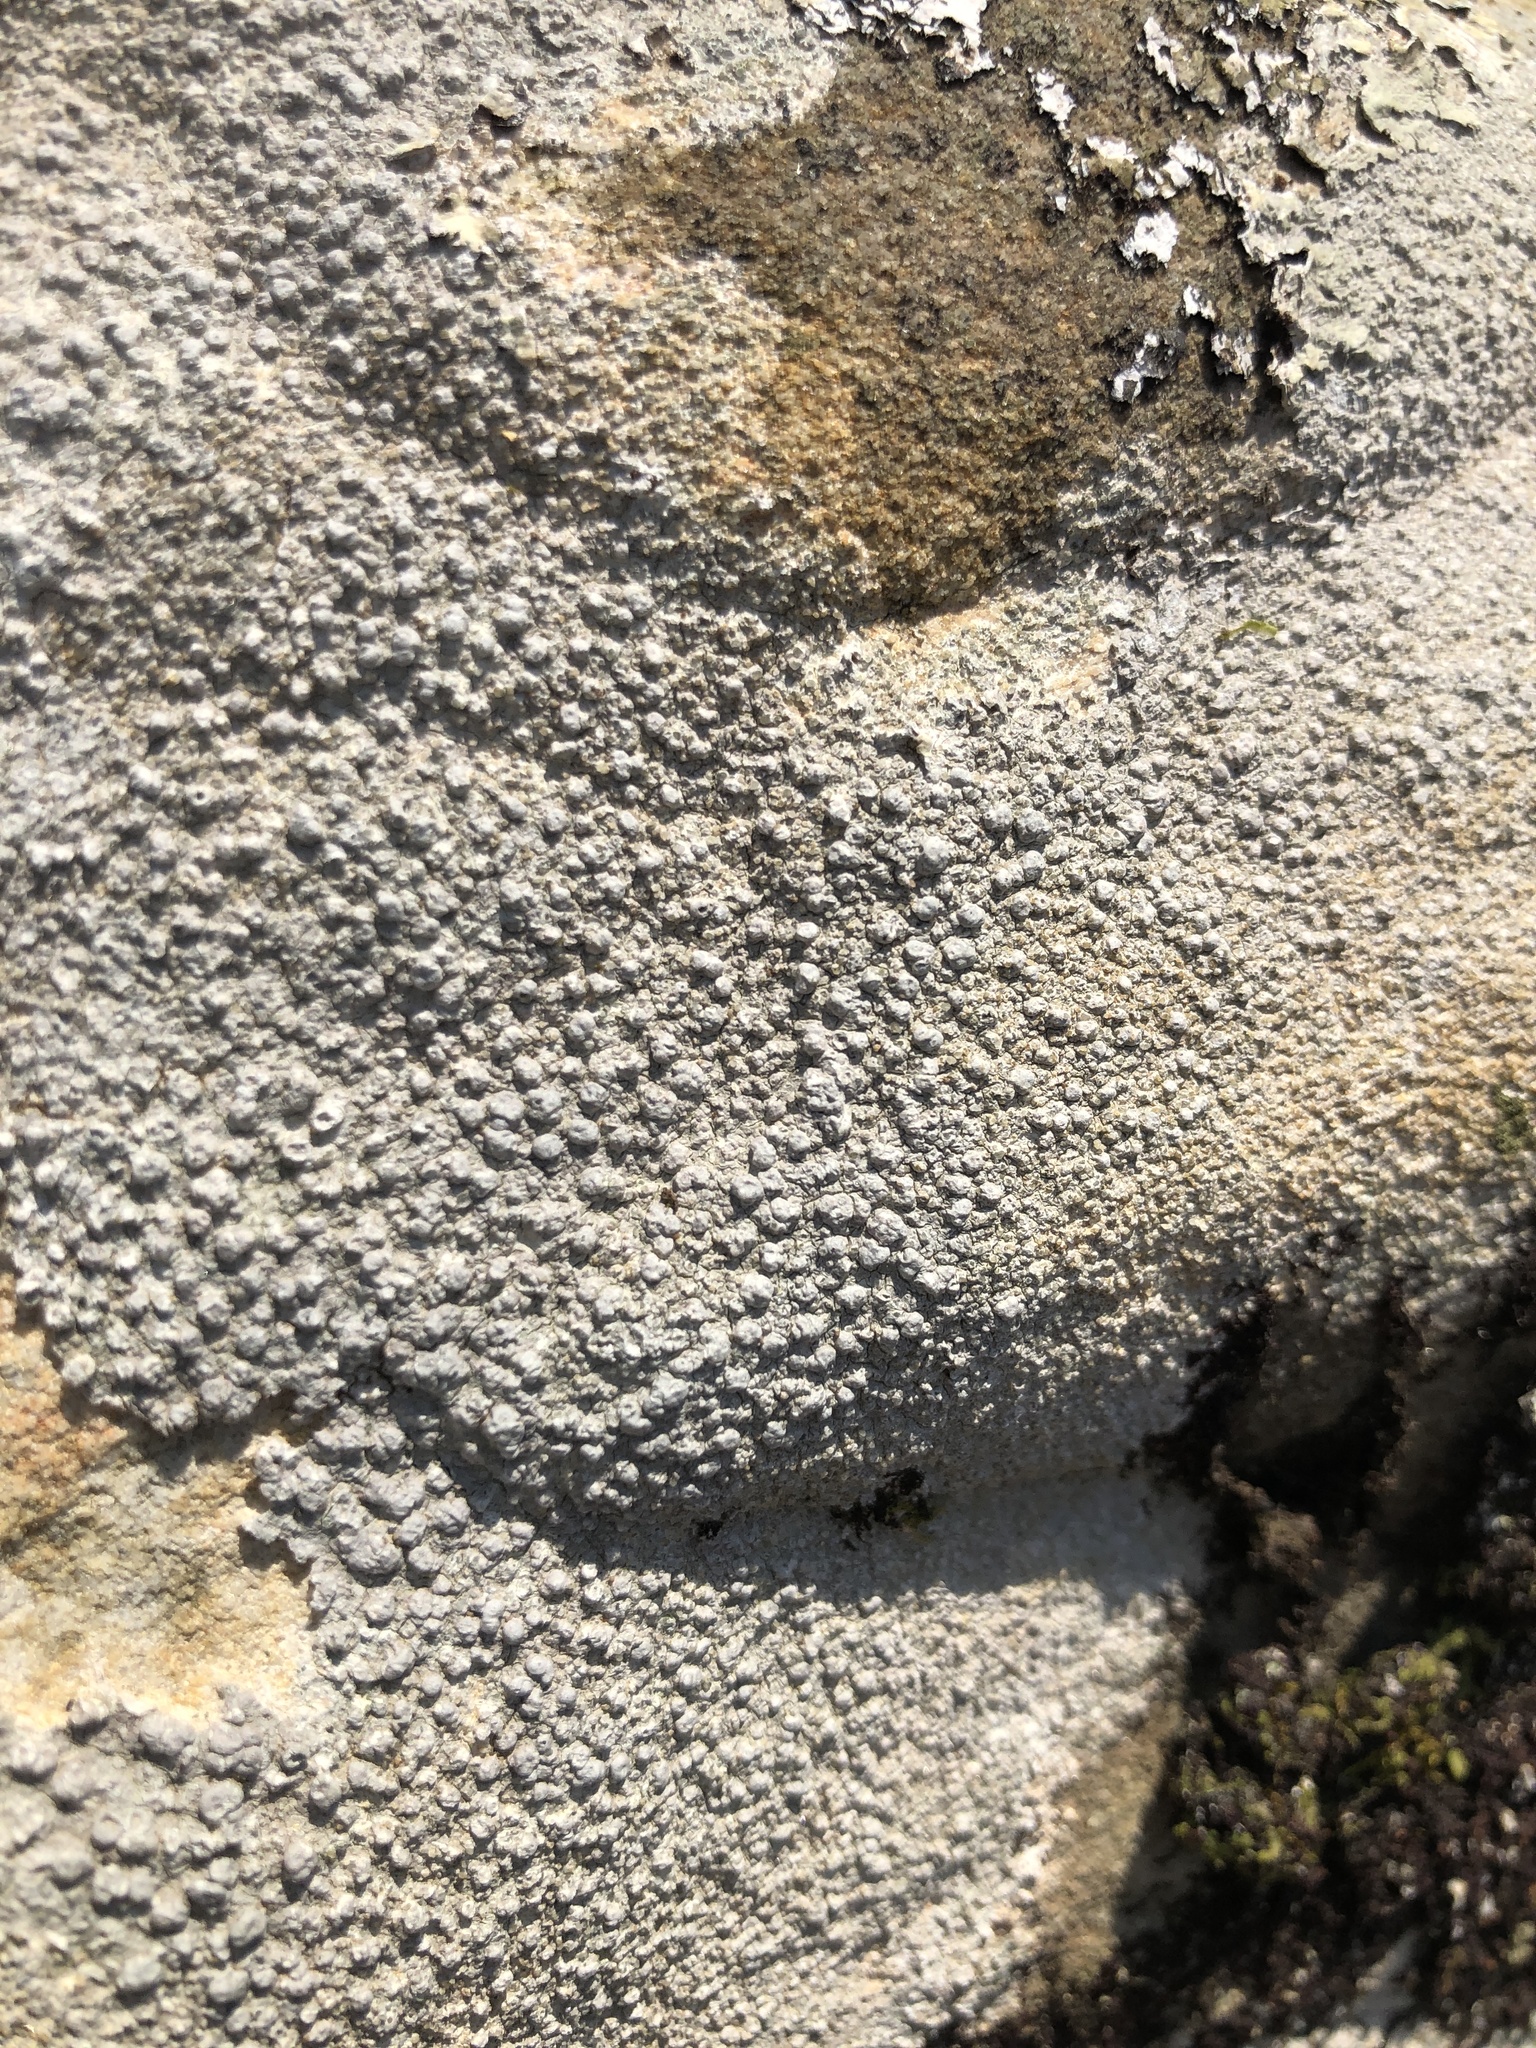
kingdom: Fungi
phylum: Ascomycota
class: Lecanoromycetes
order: Pertusariales
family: Pertusariaceae
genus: Pertusaria
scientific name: Pertusaria plittiana
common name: Rock wart lichen
